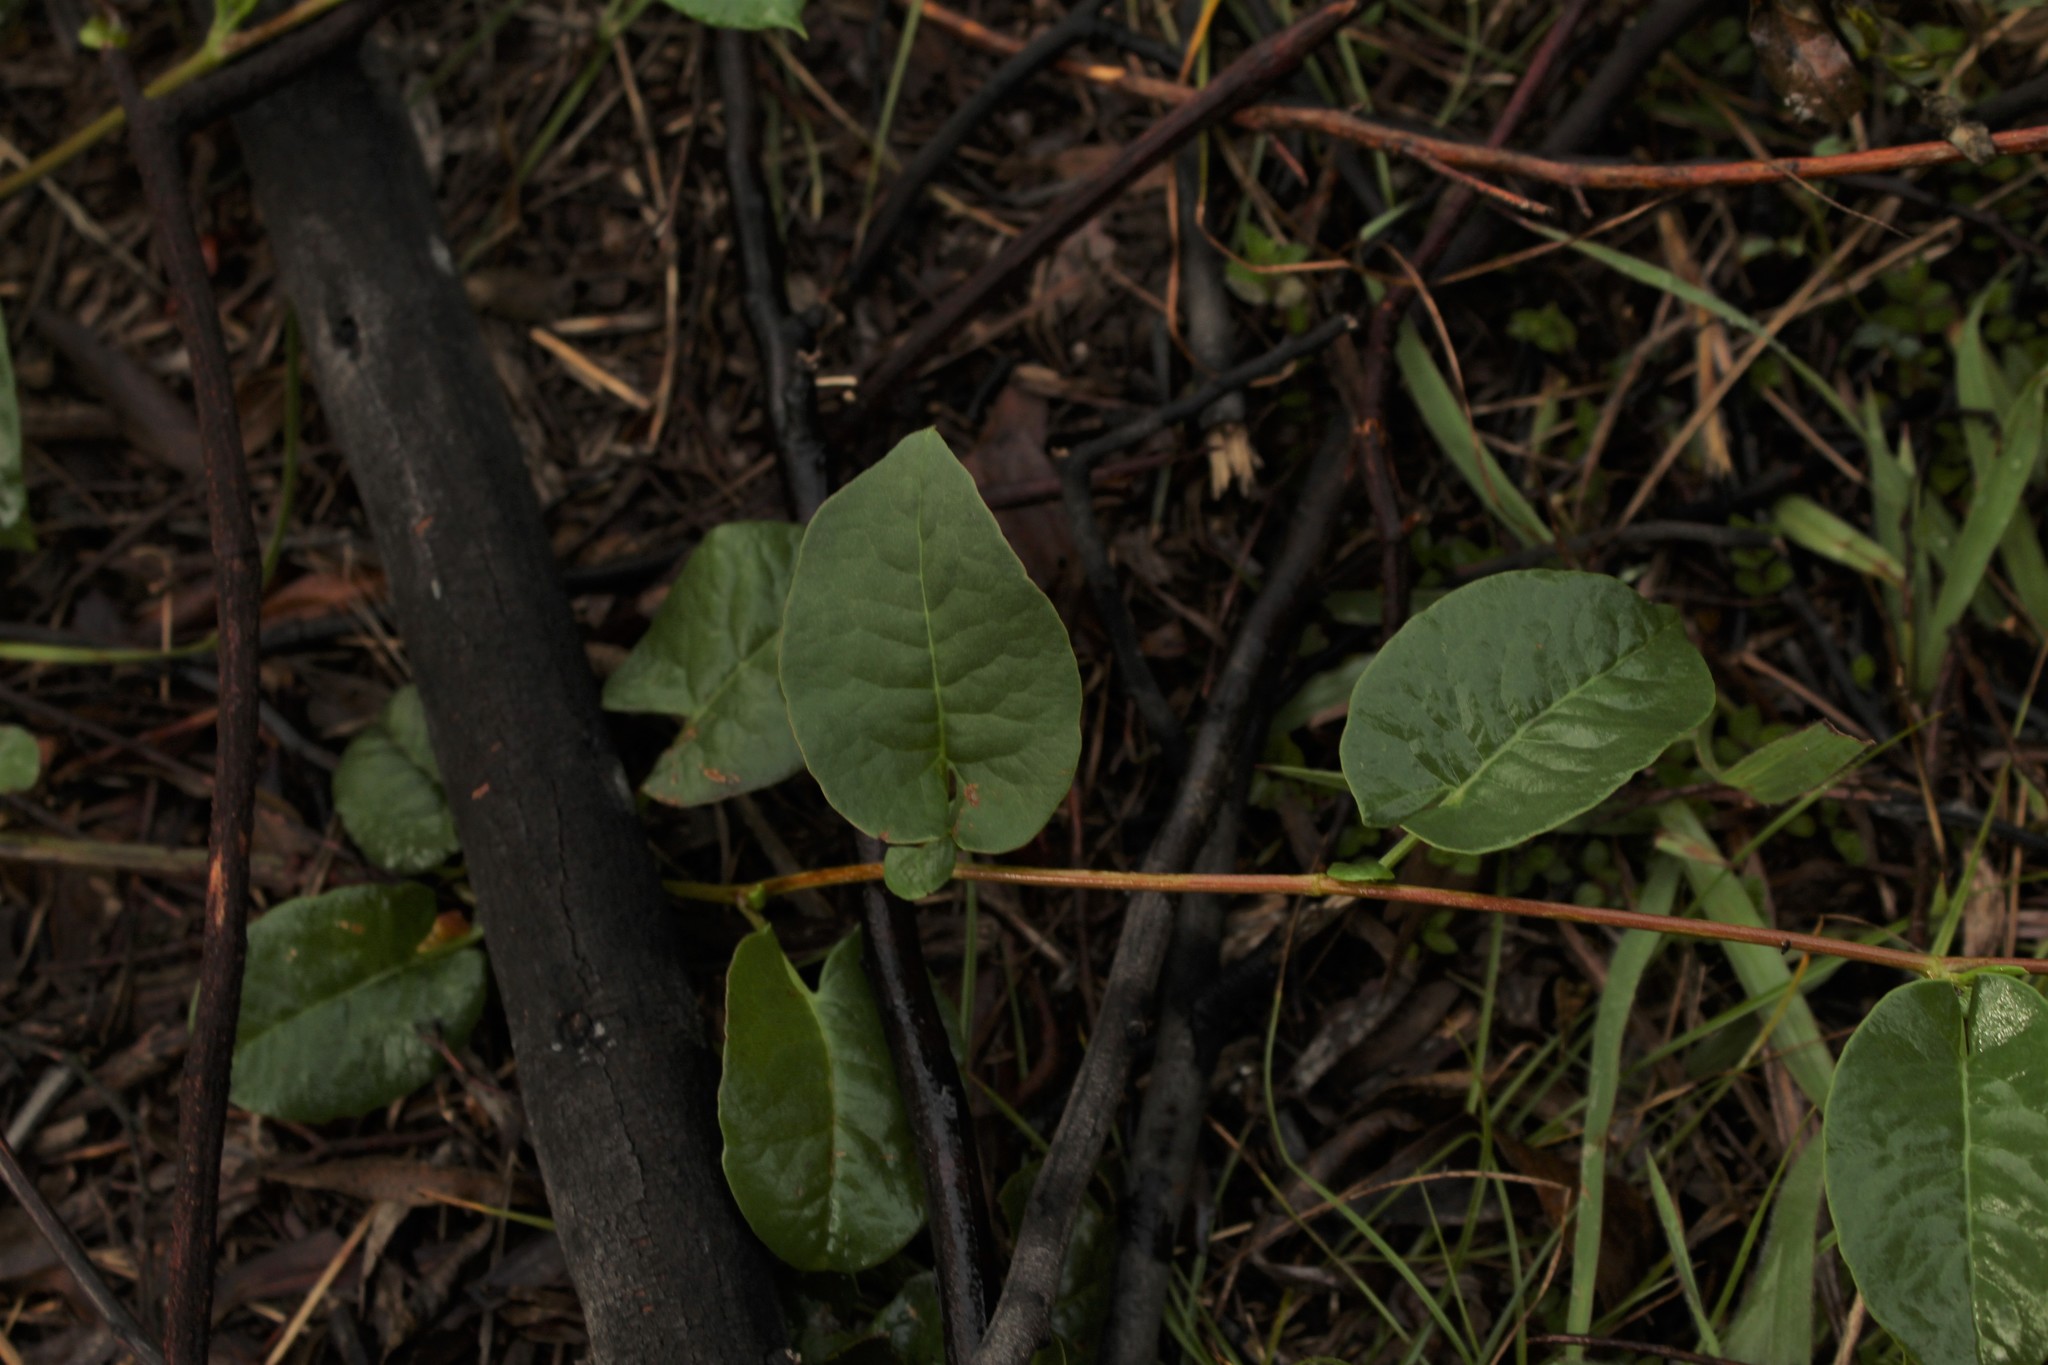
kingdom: Plantae
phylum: Tracheophyta
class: Magnoliopsida
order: Caryophyllales
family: Polygonaceae
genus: Muehlenbeckia
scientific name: Muehlenbeckia tamnifolia
